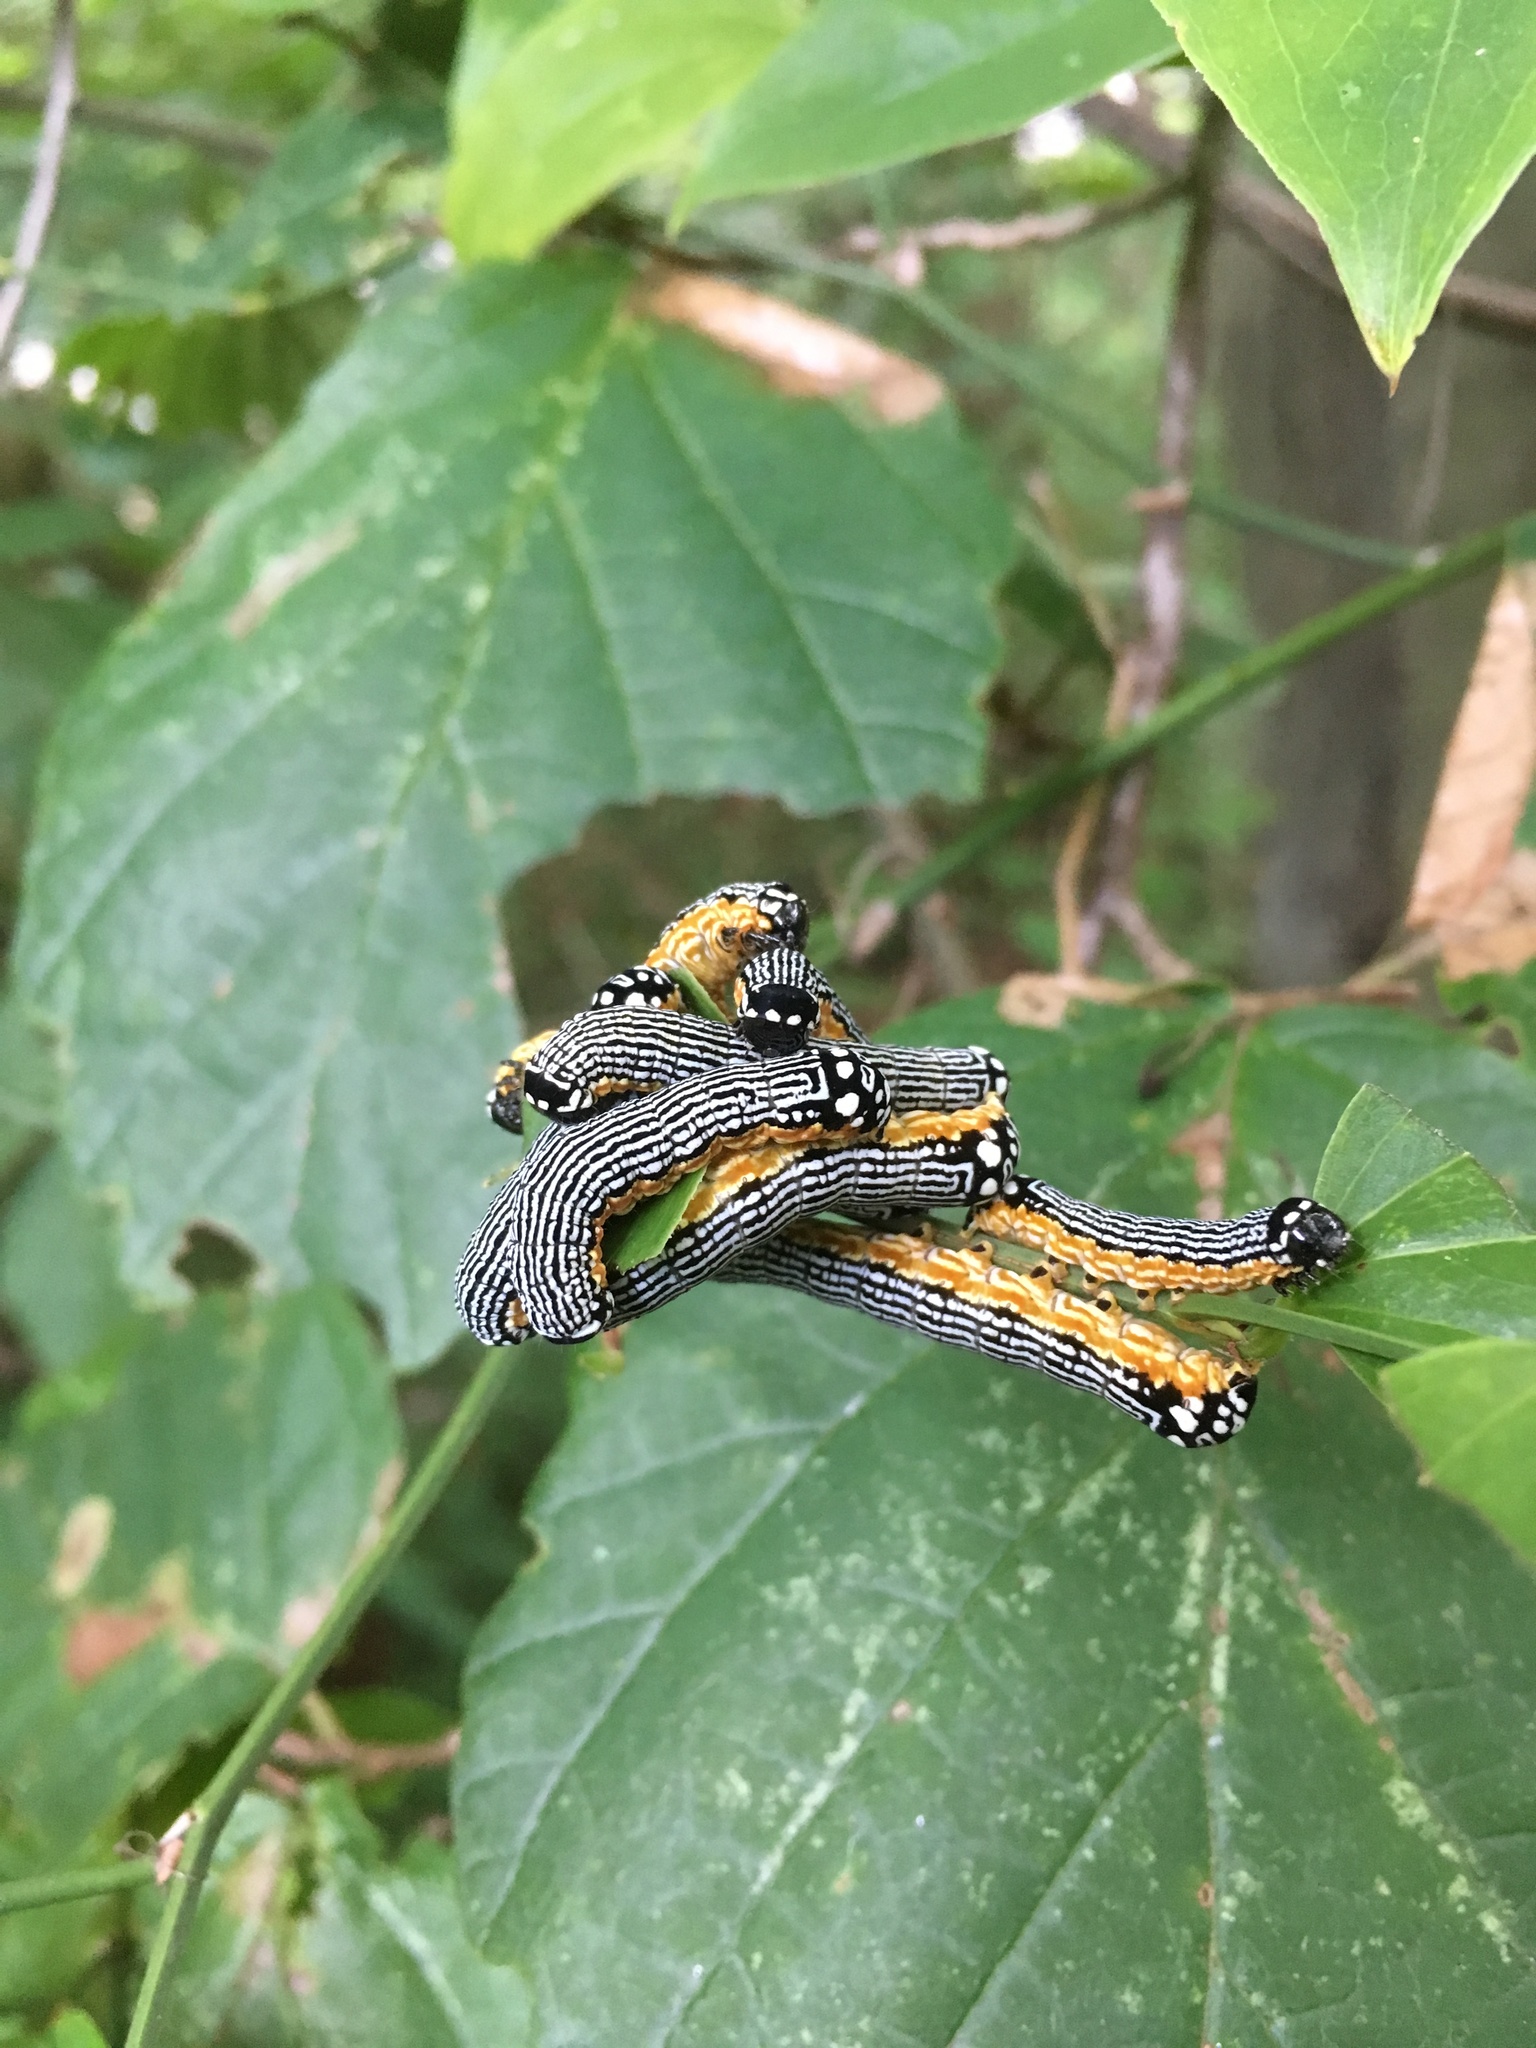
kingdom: Animalia
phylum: Arthropoda
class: Insecta
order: Lepidoptera
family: Noctuidae
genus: Phosphila
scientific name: Phosphila turbulenta
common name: Turbulent phosphila moth
